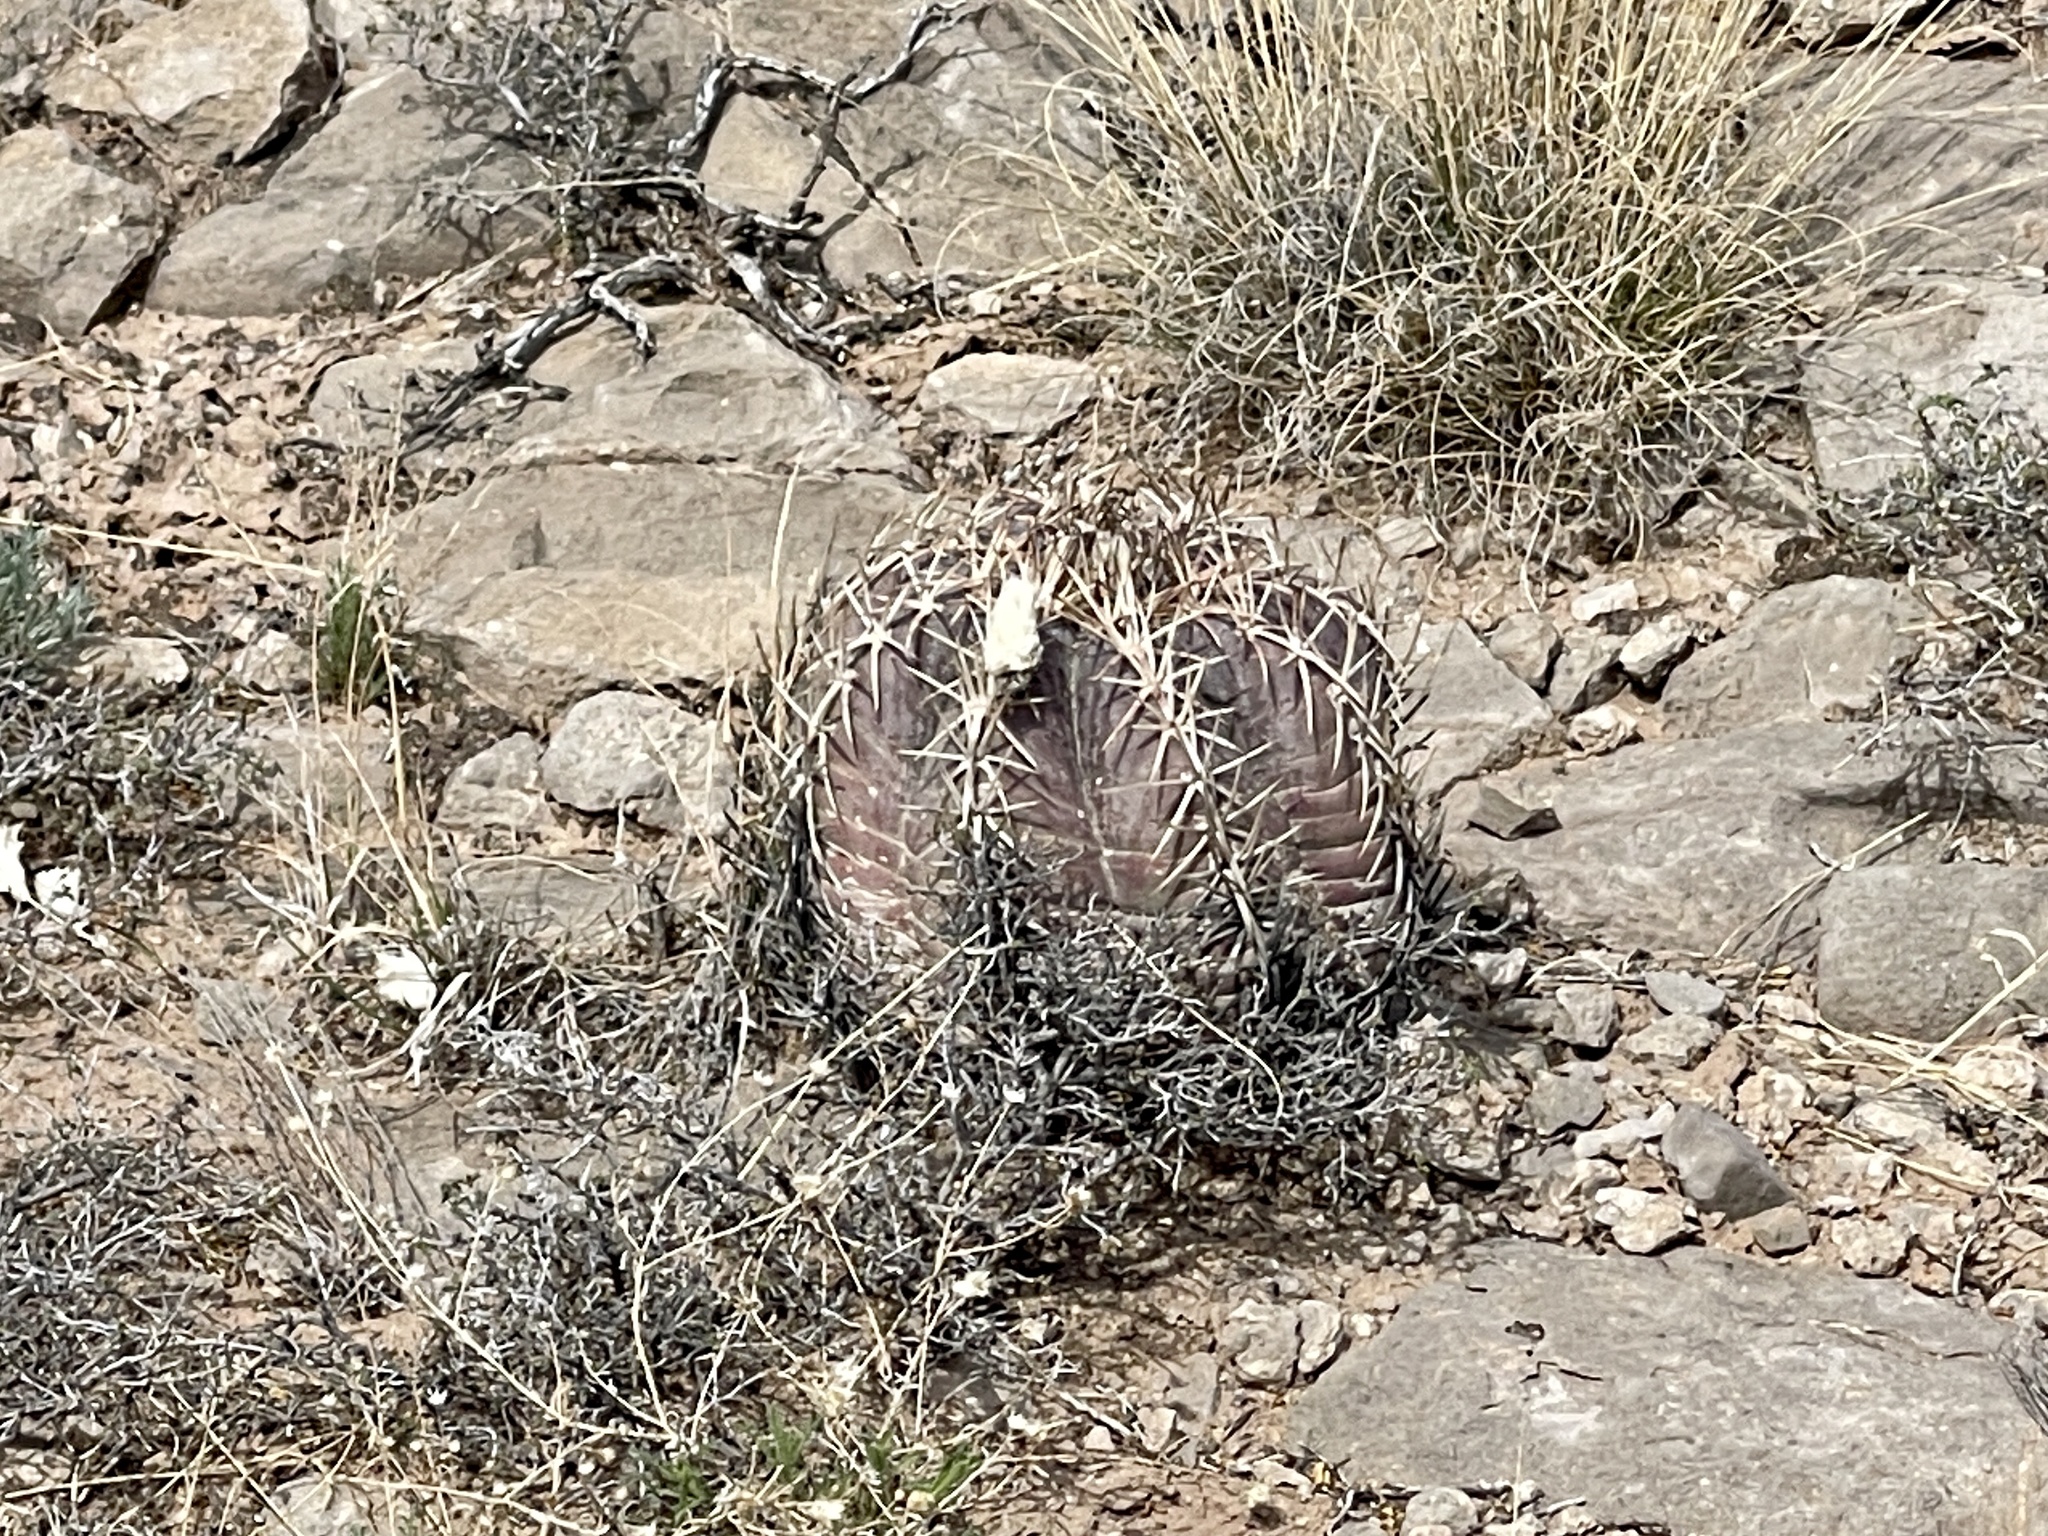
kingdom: Plantae
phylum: Tracheophyta
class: Magnoliopsida
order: Caryophyllales
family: Cactaceae
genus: Echinocactus
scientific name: Echinocactus horizonthalonius
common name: Devilshead
